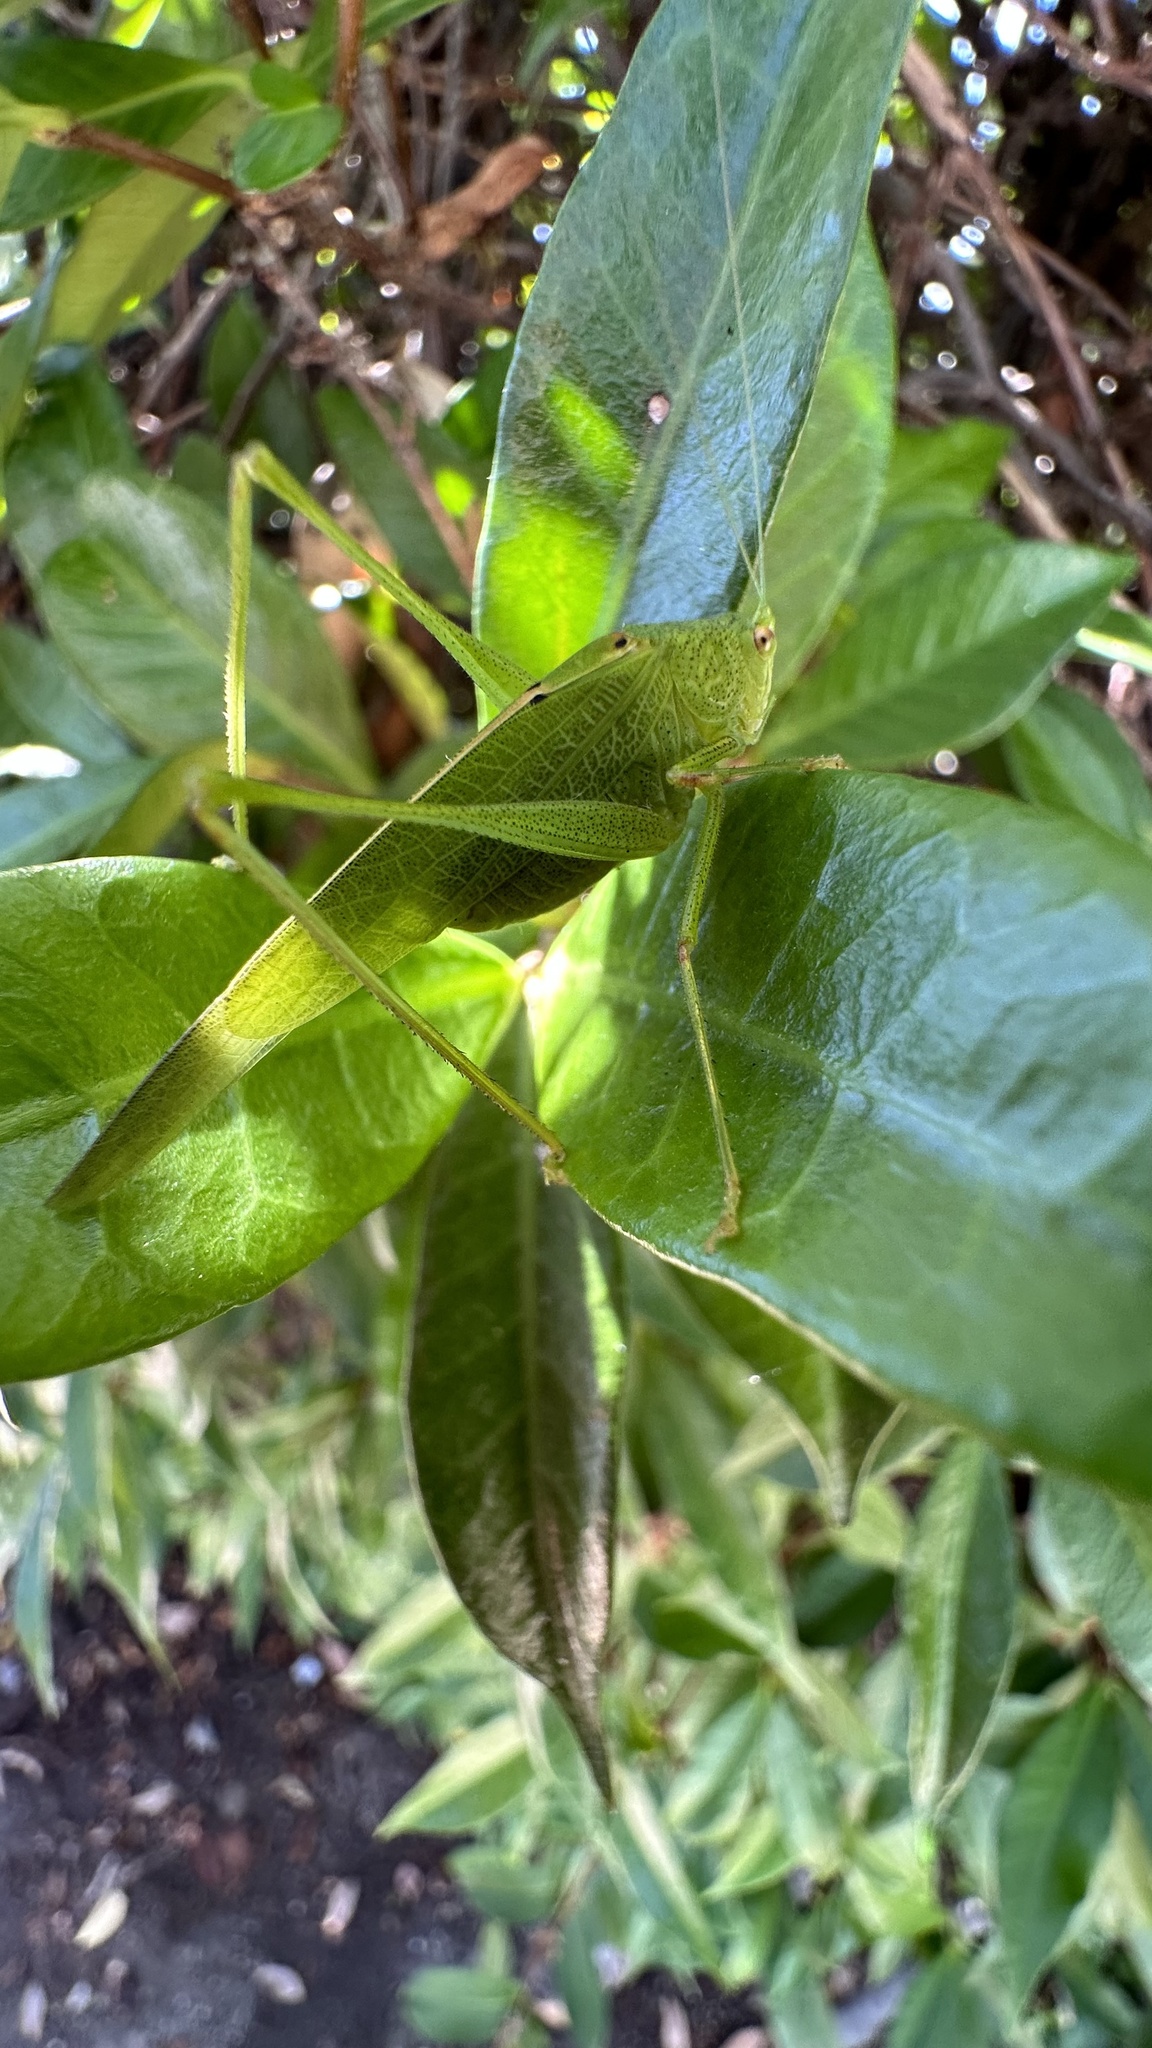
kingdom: Animalia
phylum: Arthropoda
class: Insecta
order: Orthoptera
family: Tettigoniidae
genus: Phaneroptera
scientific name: Phaneroptera nana
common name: Southern sickle bush-cricket
